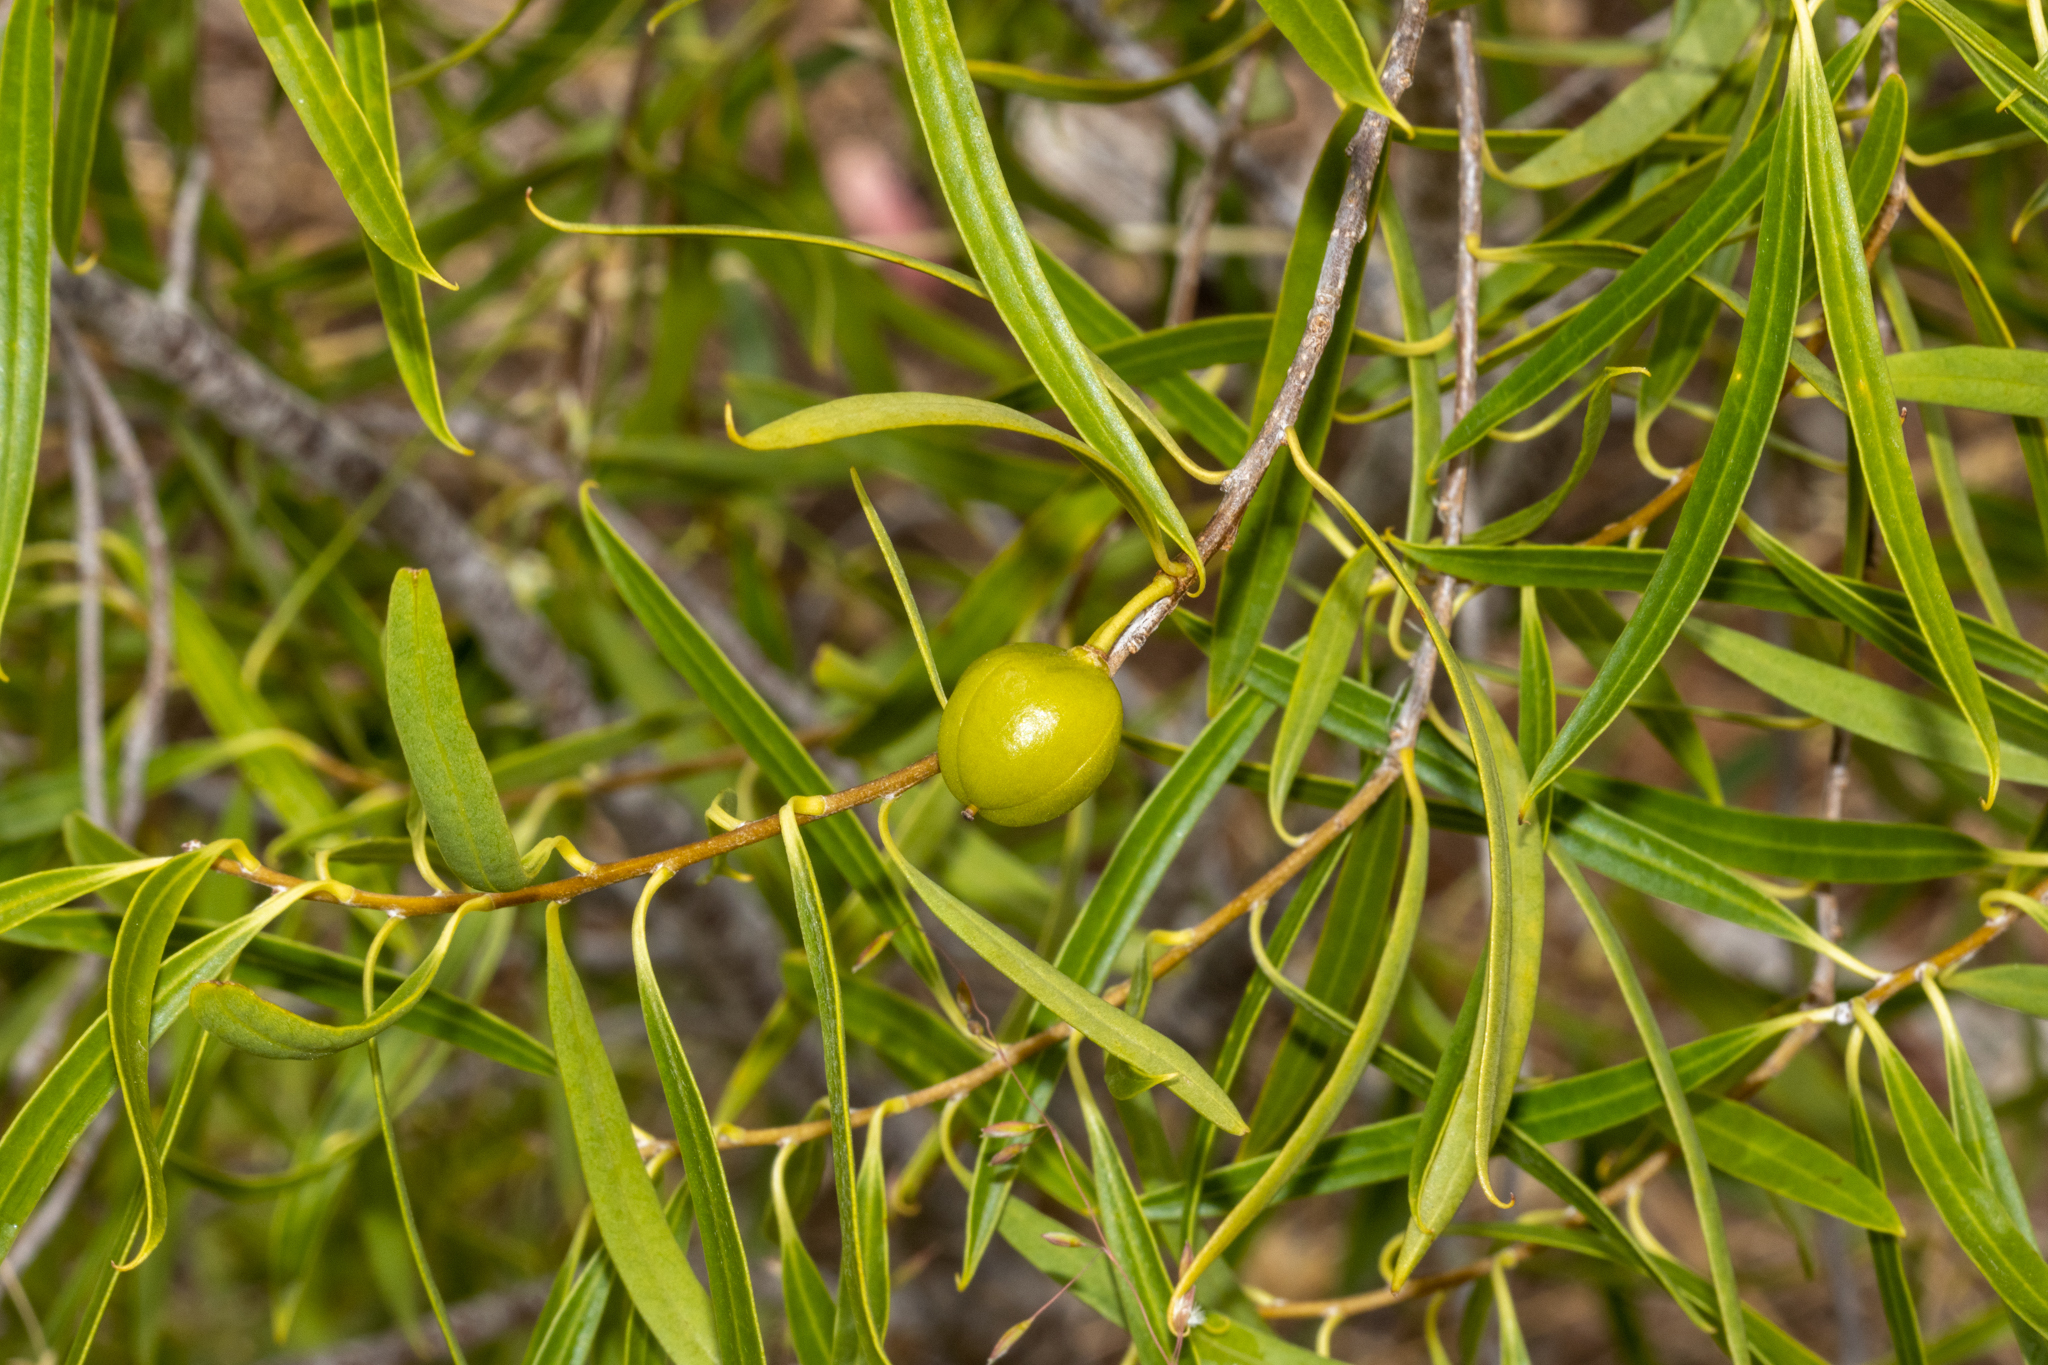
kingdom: Plantae
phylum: Tracheophyta
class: Magnoliopsida
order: Apiales
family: Pittosporaceae
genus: Pittosporum
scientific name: Pittosporum angustifolium
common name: Weeping pittosporum
